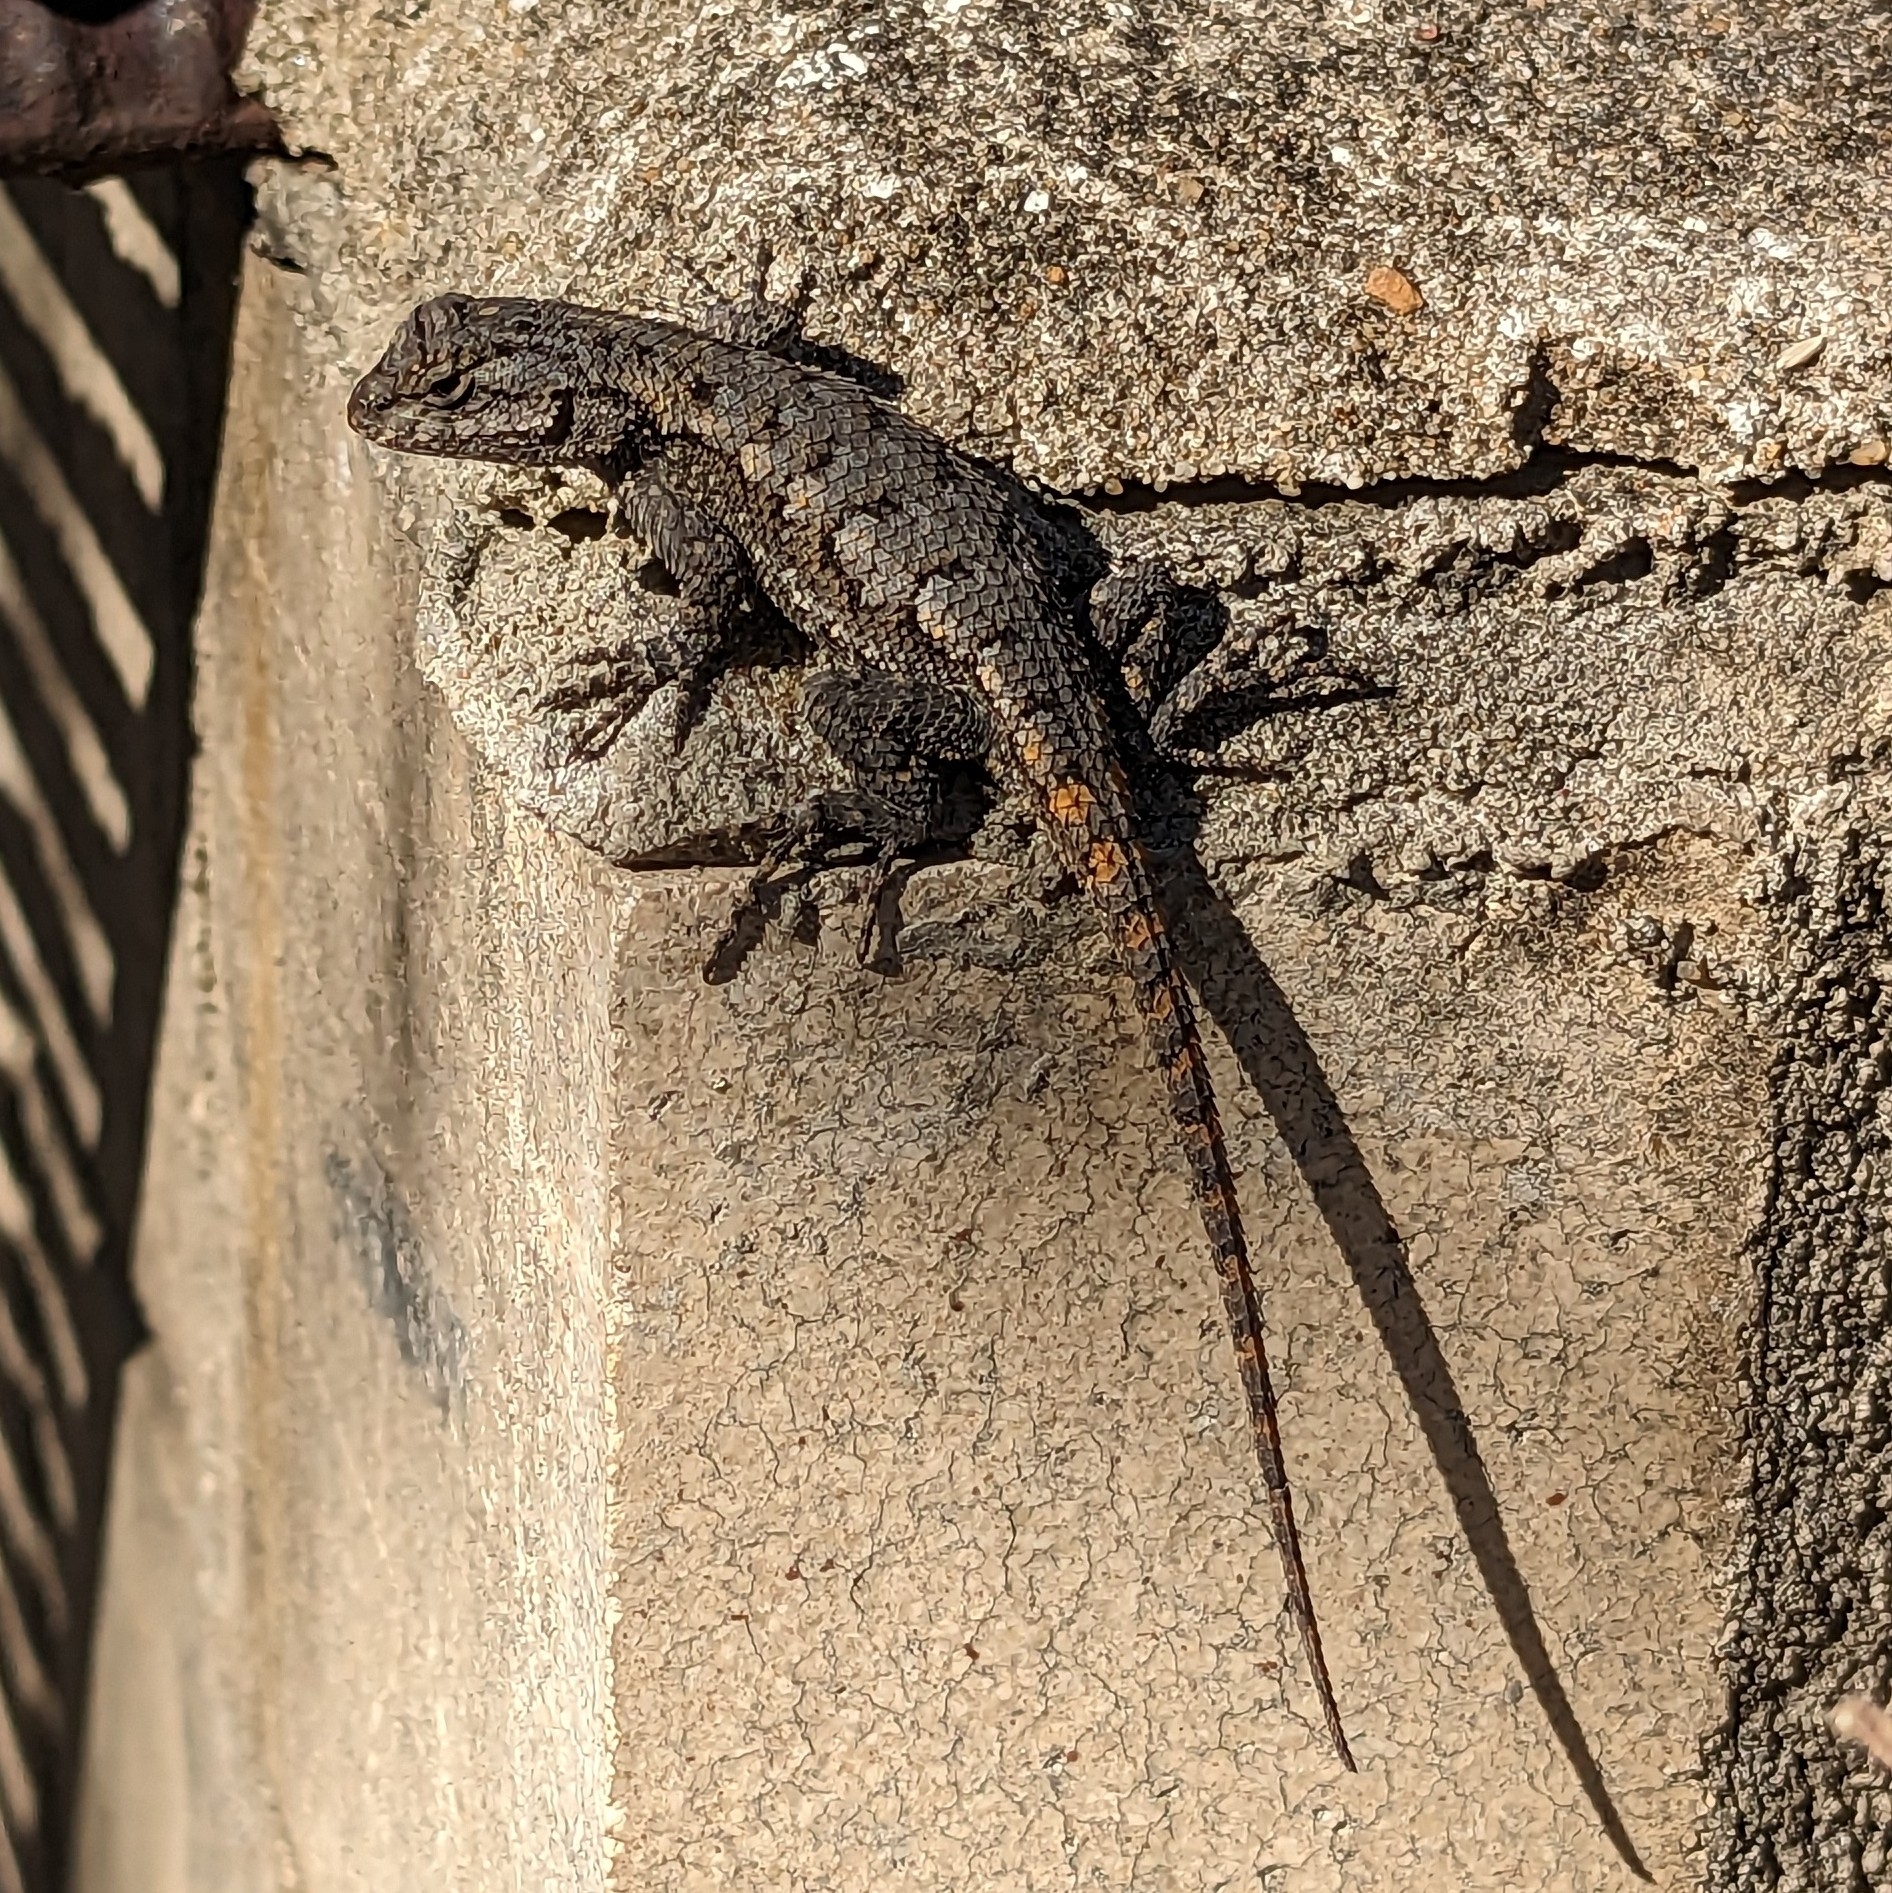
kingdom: Animalia
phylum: Chordata
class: Squamata
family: Phrynosomatidae
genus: Sceloporus
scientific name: Sceloporus undulatus
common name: Eastern fence lizard
